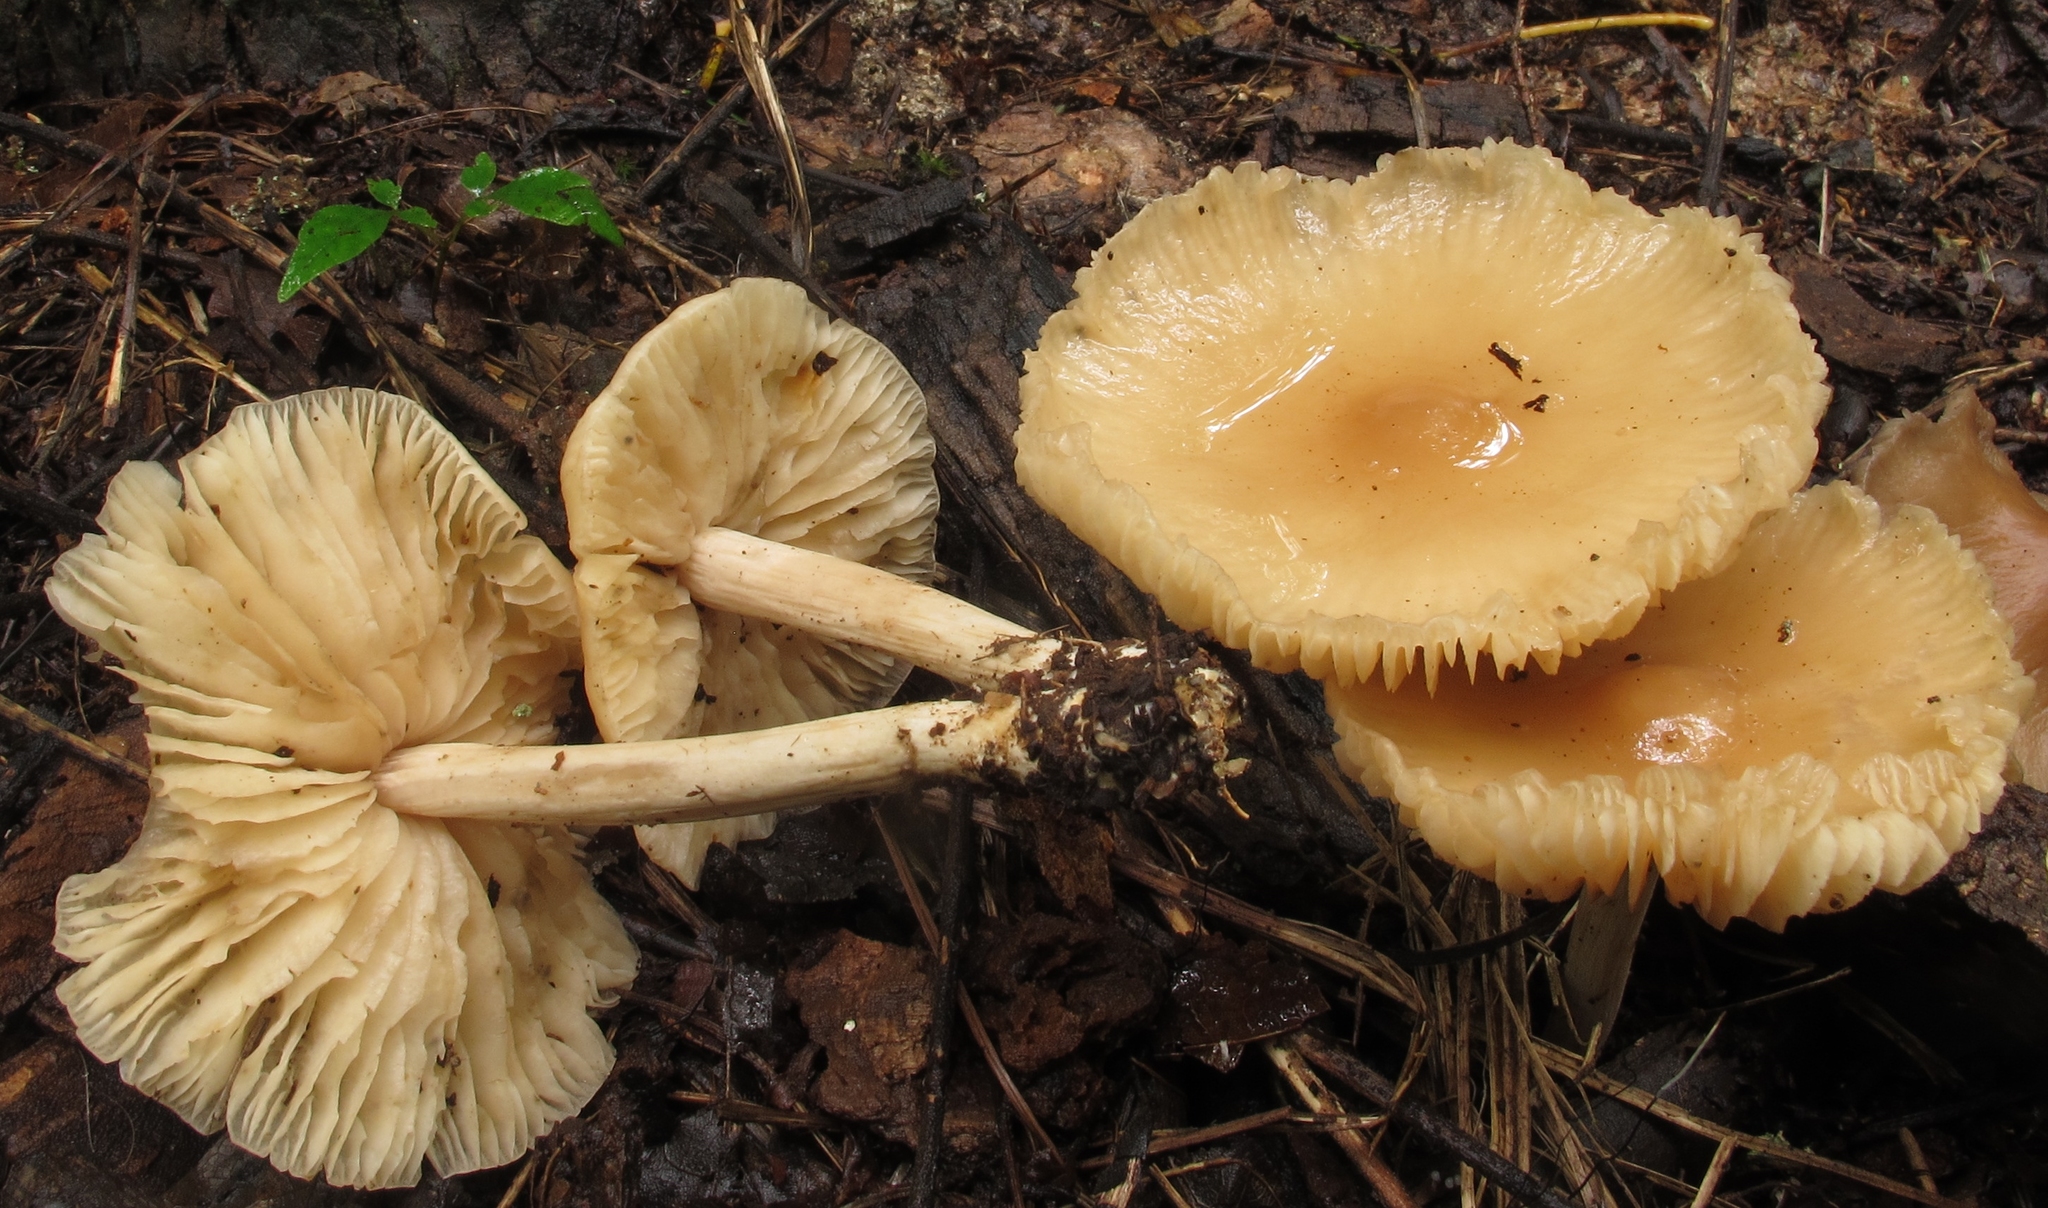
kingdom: Fungi
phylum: Basidiomycota
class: Agaricomycetes
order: Agaricales
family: Marasmiaceae
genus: Marasmius
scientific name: Marasmius nigrodiscus
